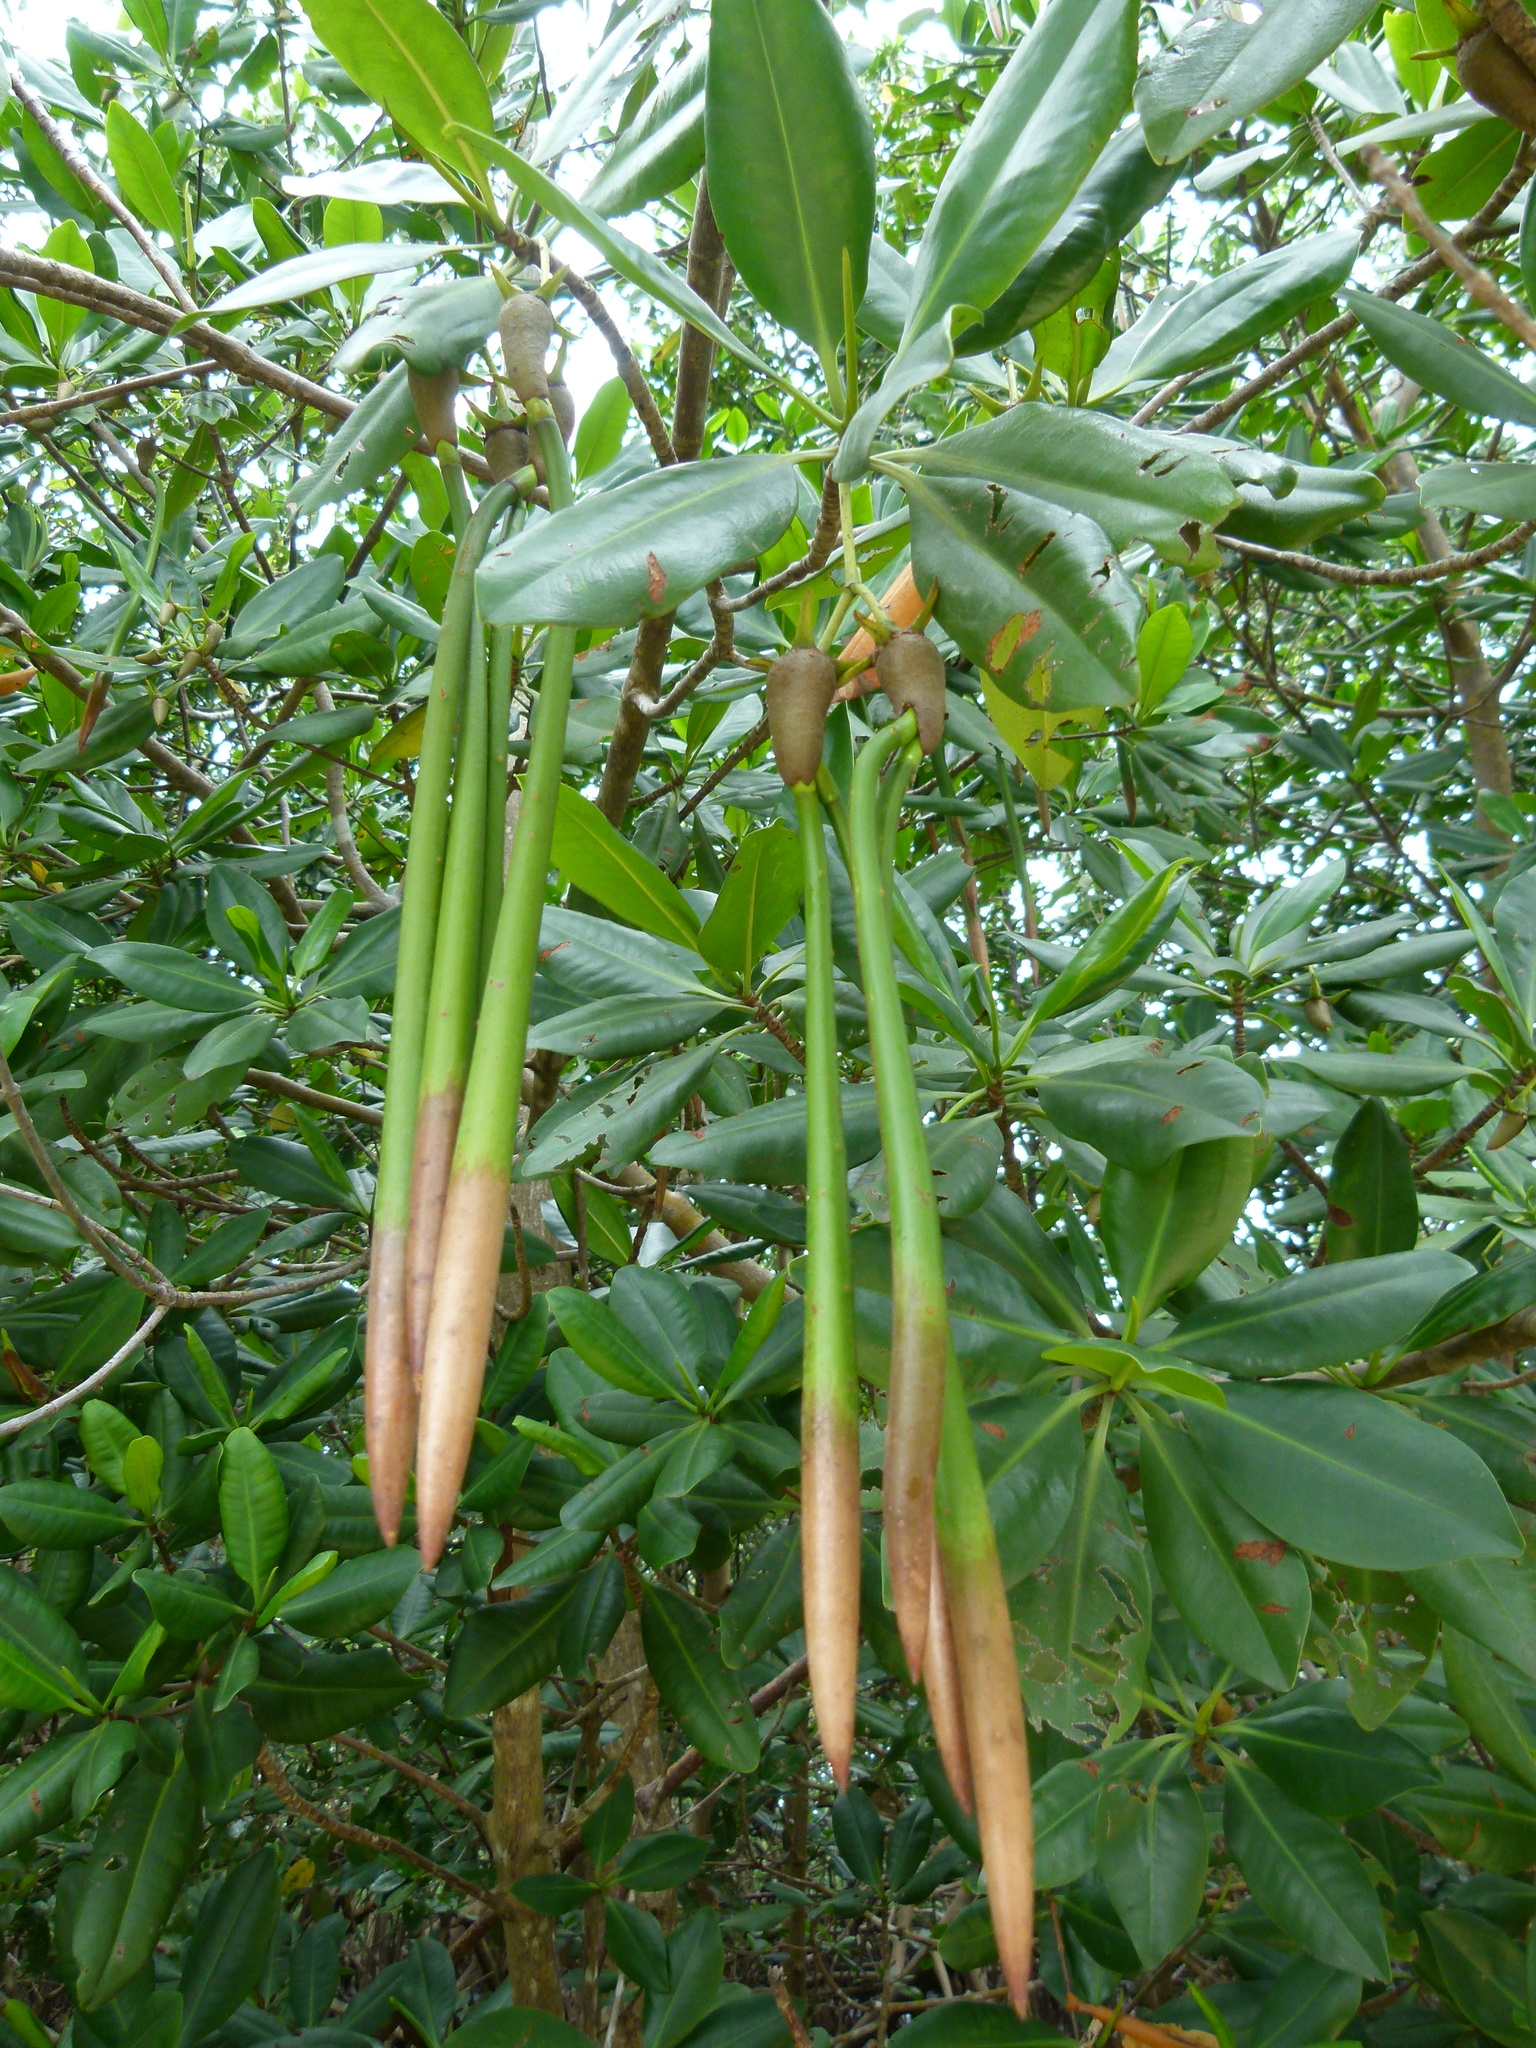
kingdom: Plantae
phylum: Tracheophyta
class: Magnoliopsida
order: Malpighiales
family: Rhizophoraceae
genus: Rhizophora
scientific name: Rhizophora mangle
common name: Red mangrove
